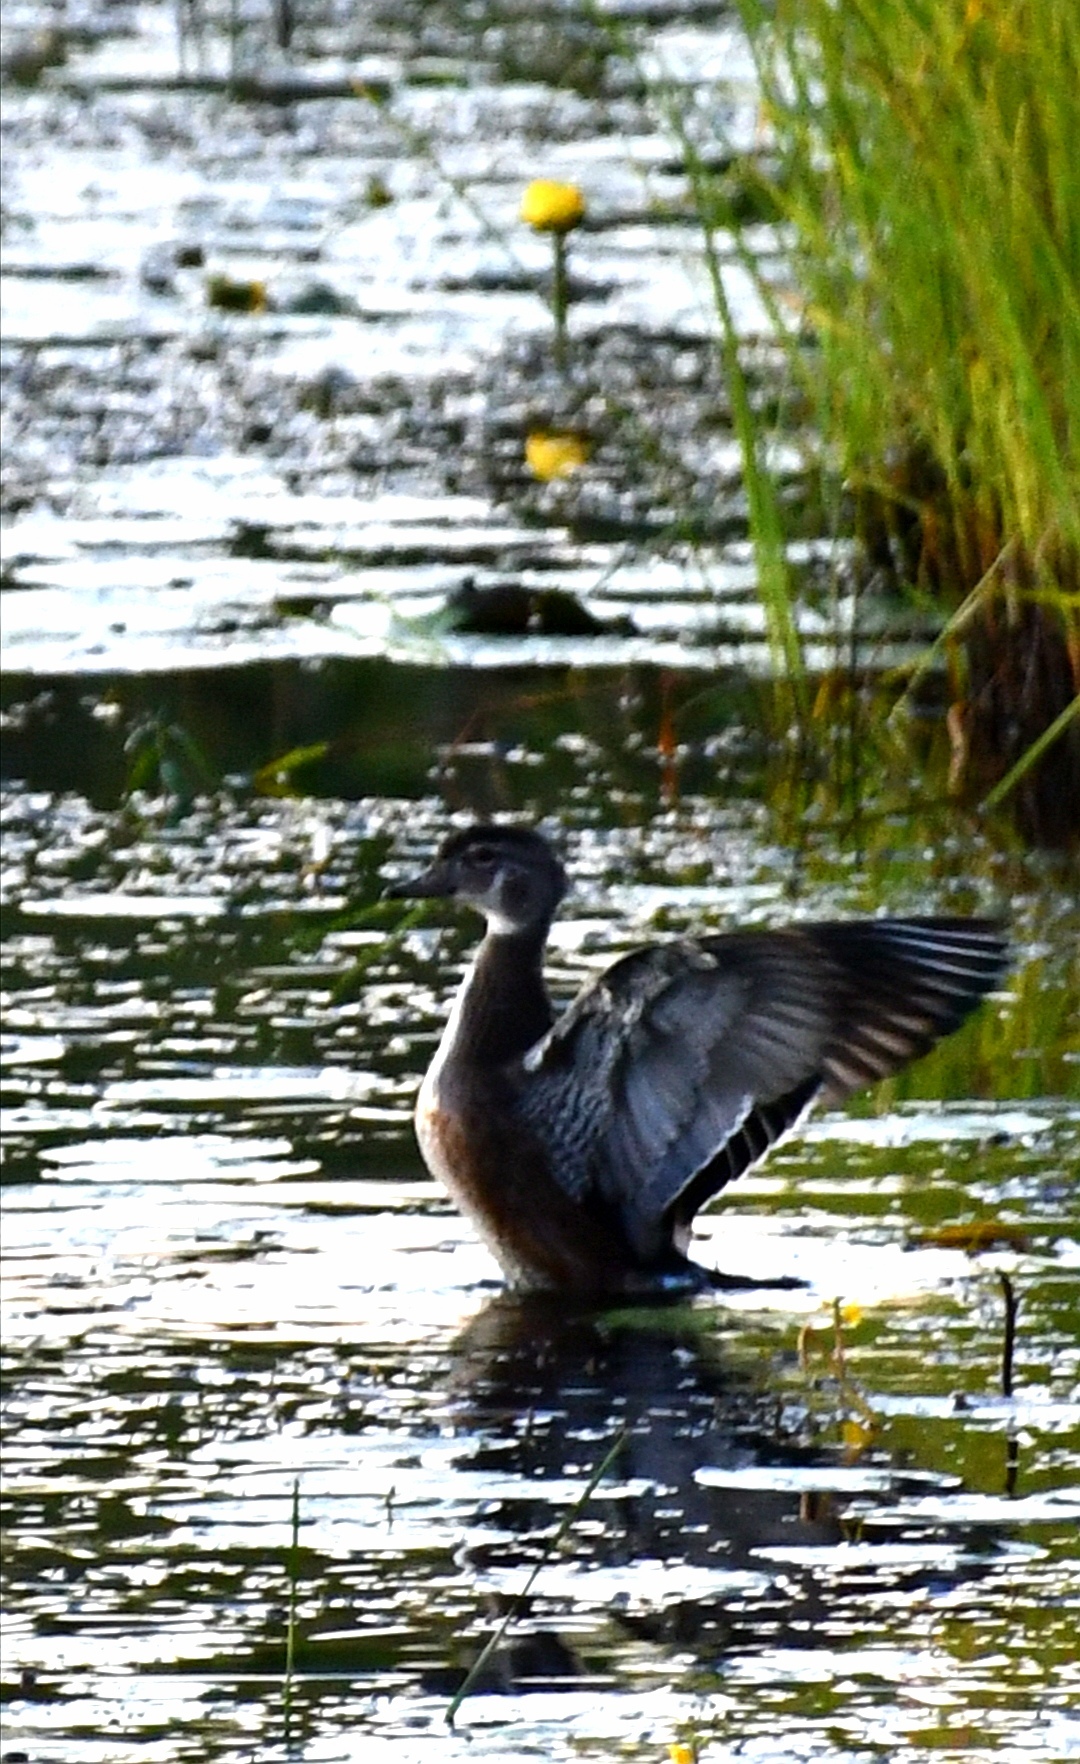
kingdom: Animalia
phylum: Chordata
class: Aves
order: Anseriformes
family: Anatidae
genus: Aix
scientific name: Aix sponsa
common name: Wood duck
